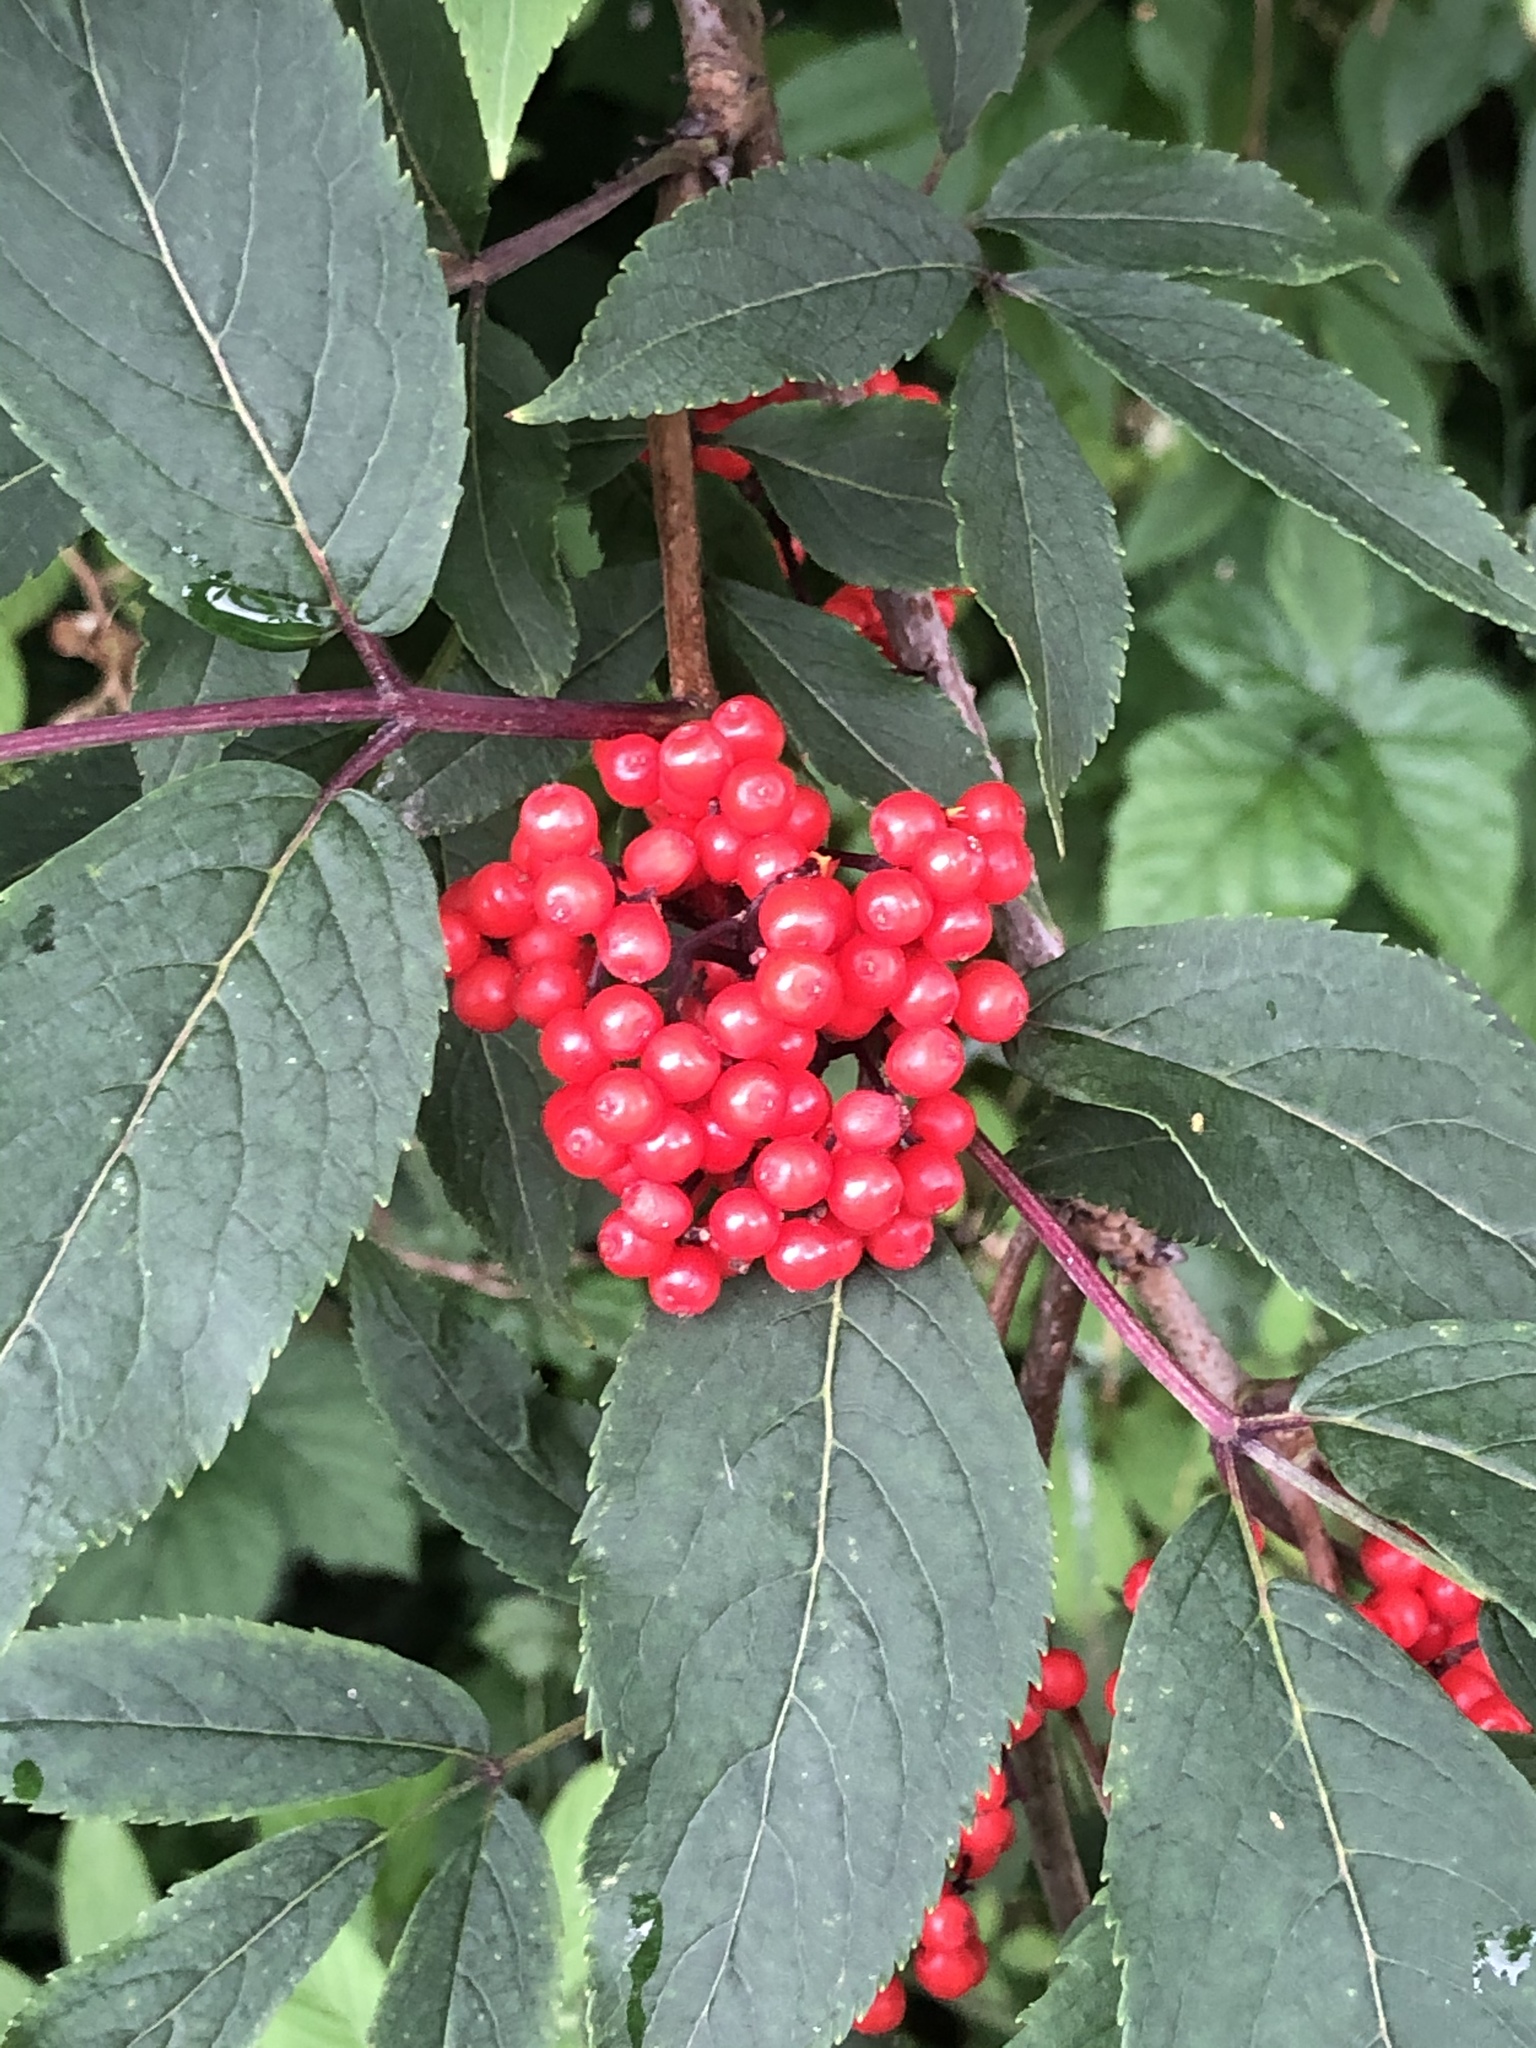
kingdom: Plantae
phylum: Tracheophyta
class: Magnoliopsida
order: Dipsacales
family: Viburnaceae
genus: Sambucus
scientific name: Sambucus racemosa
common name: Red-berried elder
